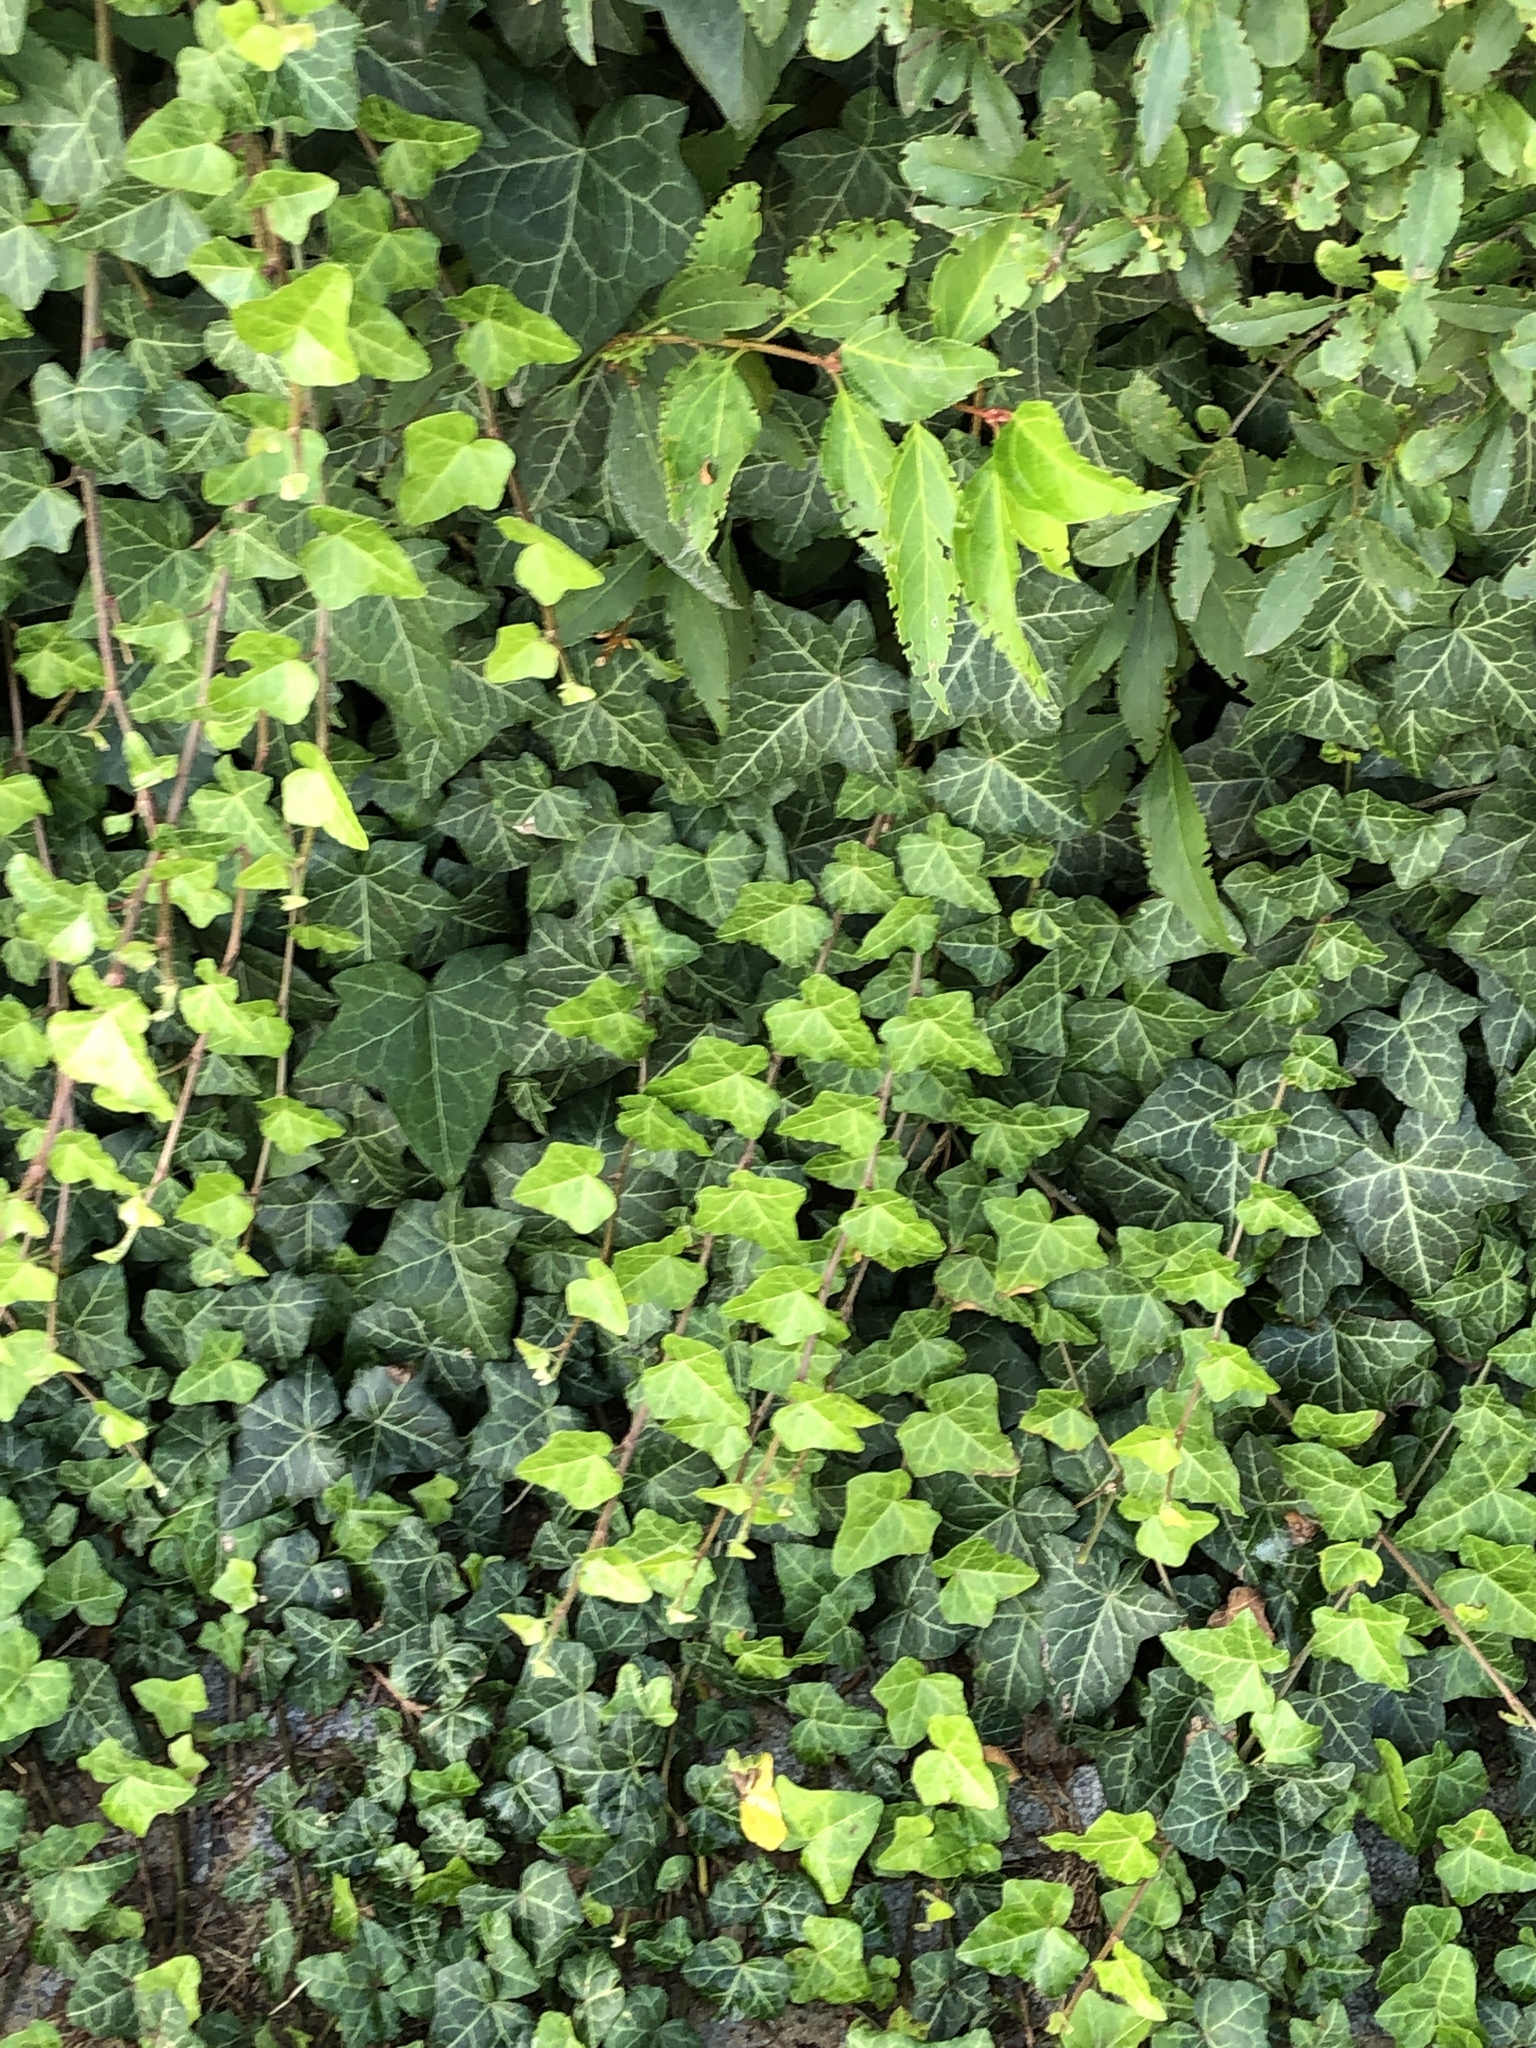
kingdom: Plantae
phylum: Tracheophyta
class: Magnoliopsida
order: Apiales
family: Araliaceae
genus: Hedera
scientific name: Hedera helix
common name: Ivy
